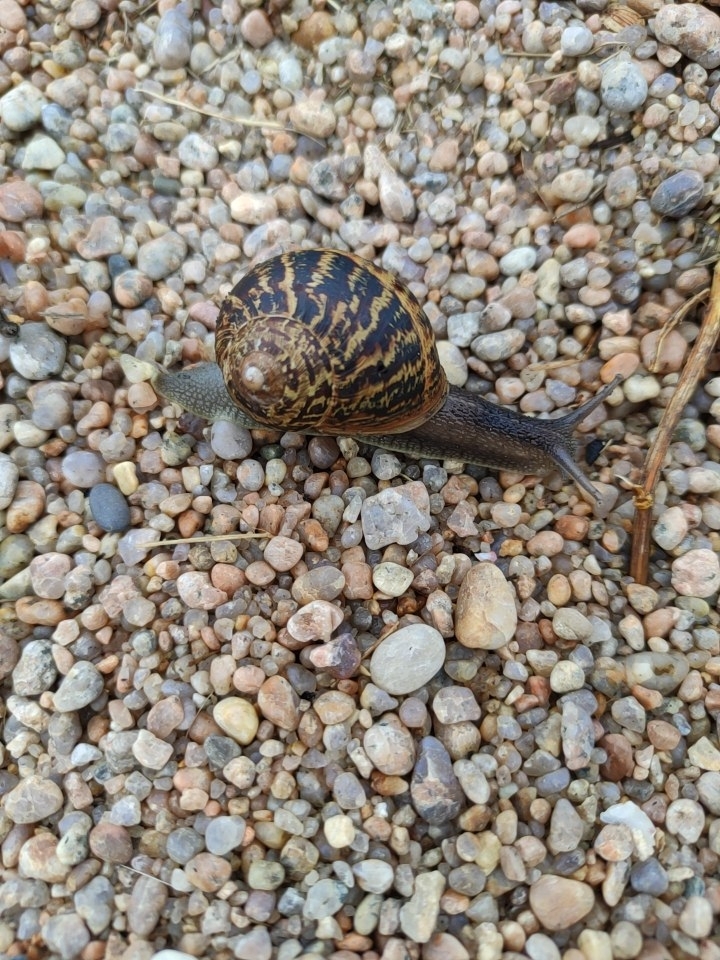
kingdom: Animalia
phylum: Mollusca
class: Gastropoda
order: Stylommatophora
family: Helicidae
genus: Cornu
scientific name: Cornu aspersum
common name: Brown garden snail
